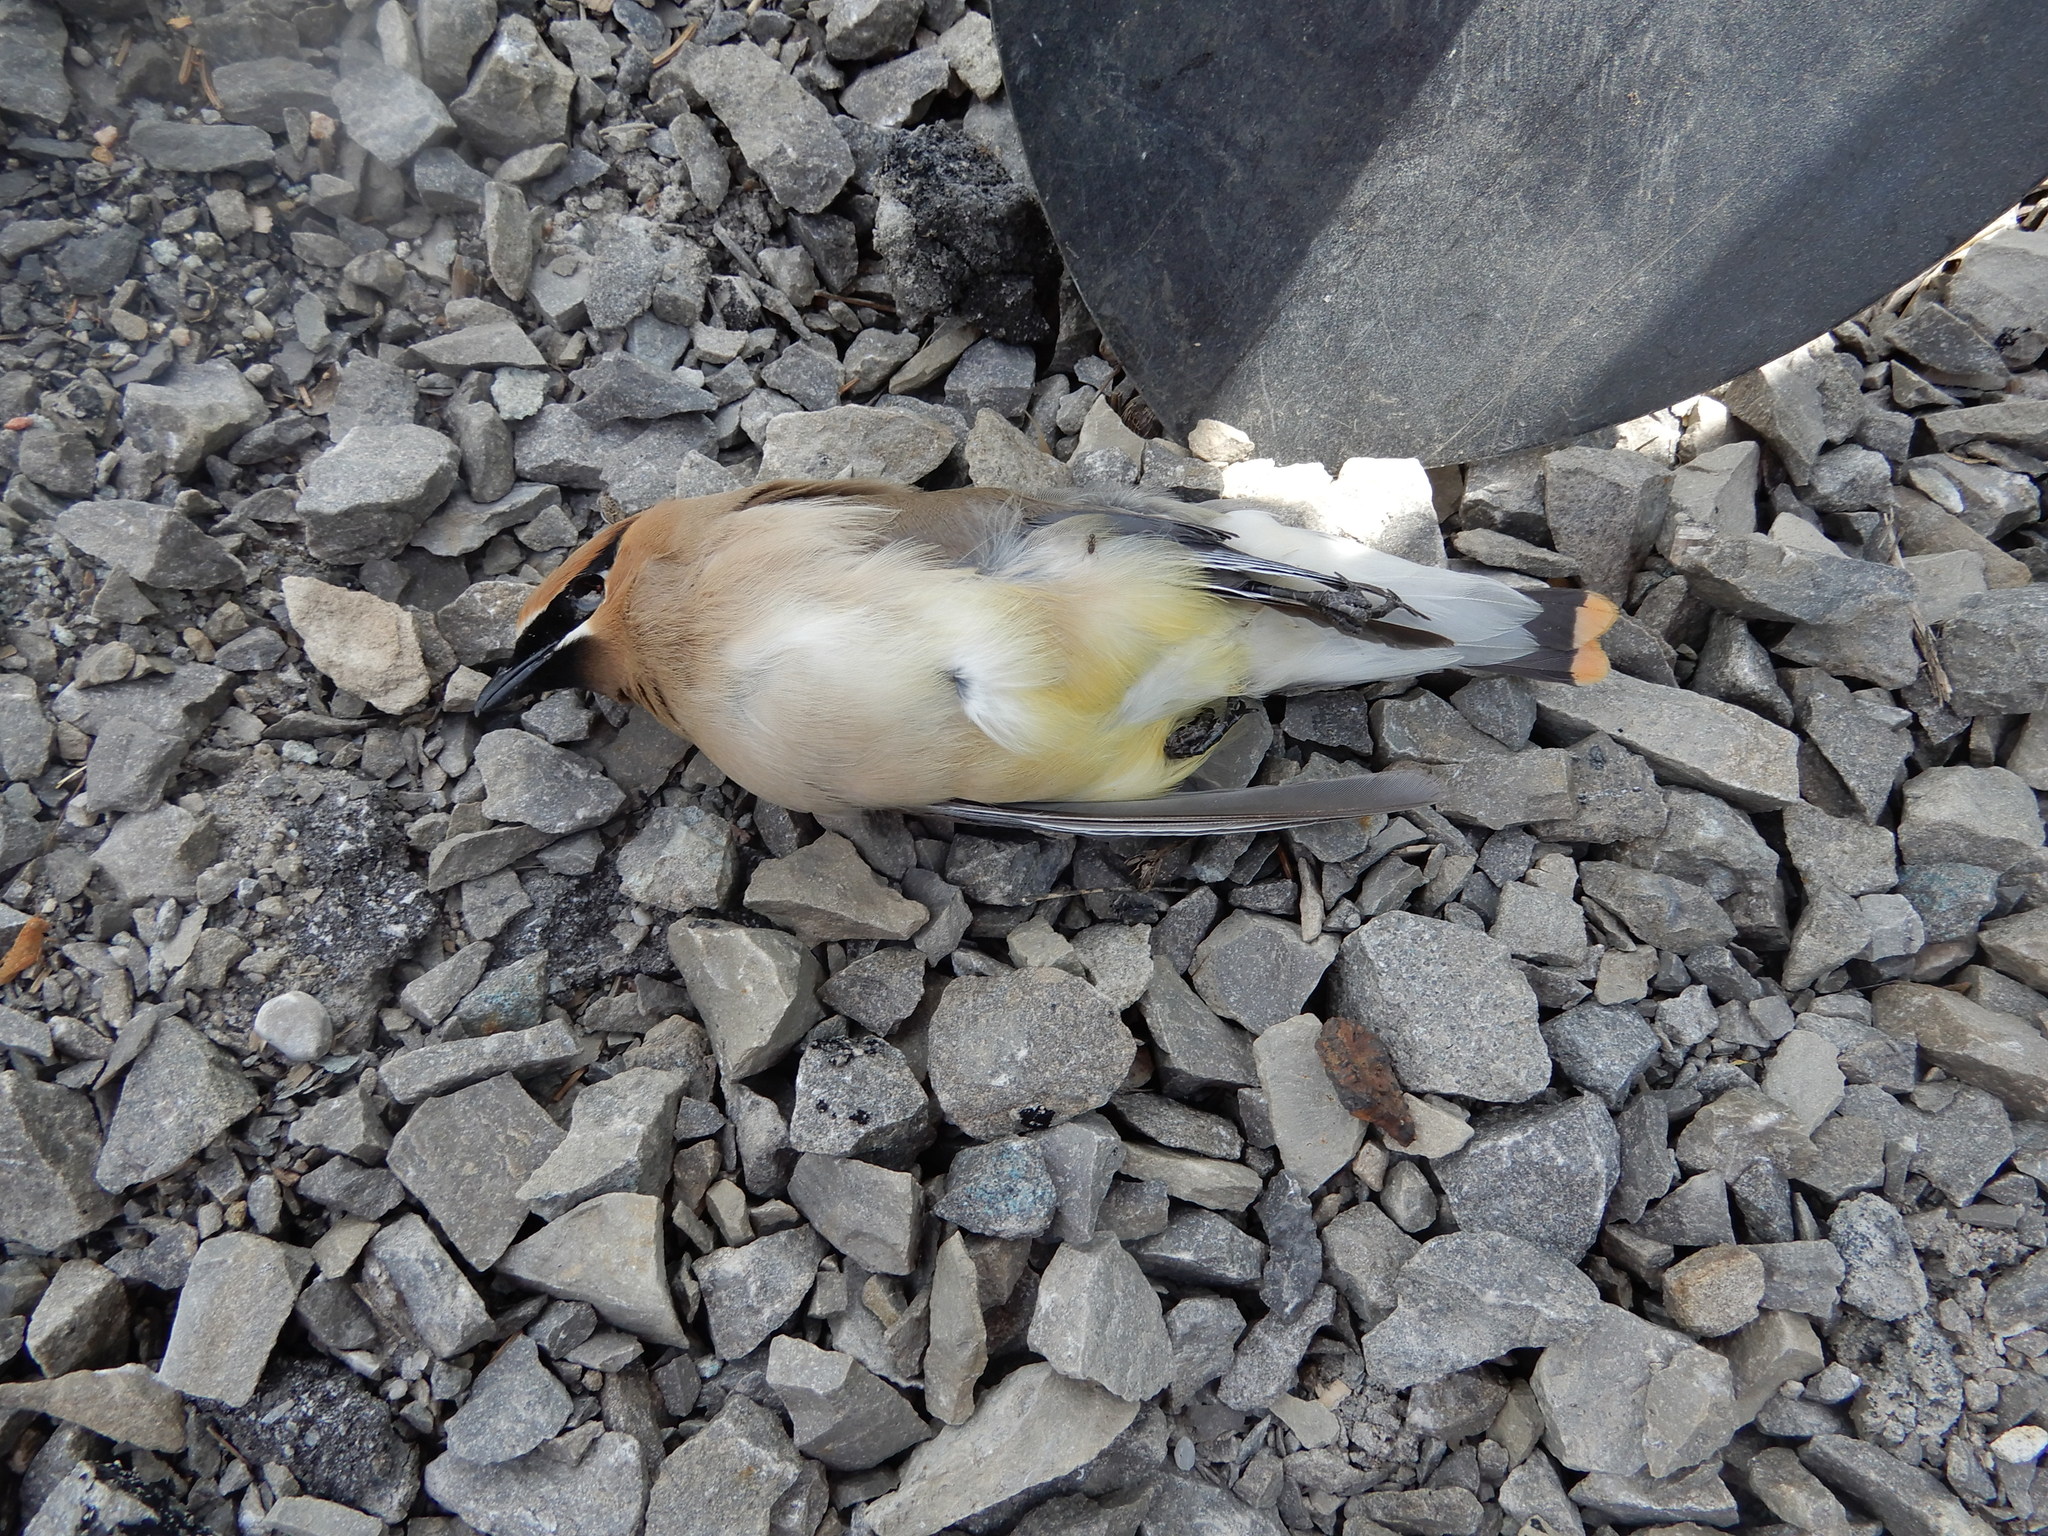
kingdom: Animalia
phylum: Chordata
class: Aves
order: Passeriformes
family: Bombycillidae
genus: Bombycilla
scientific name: Bombycilla cedrorum
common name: Cedar waxwing
